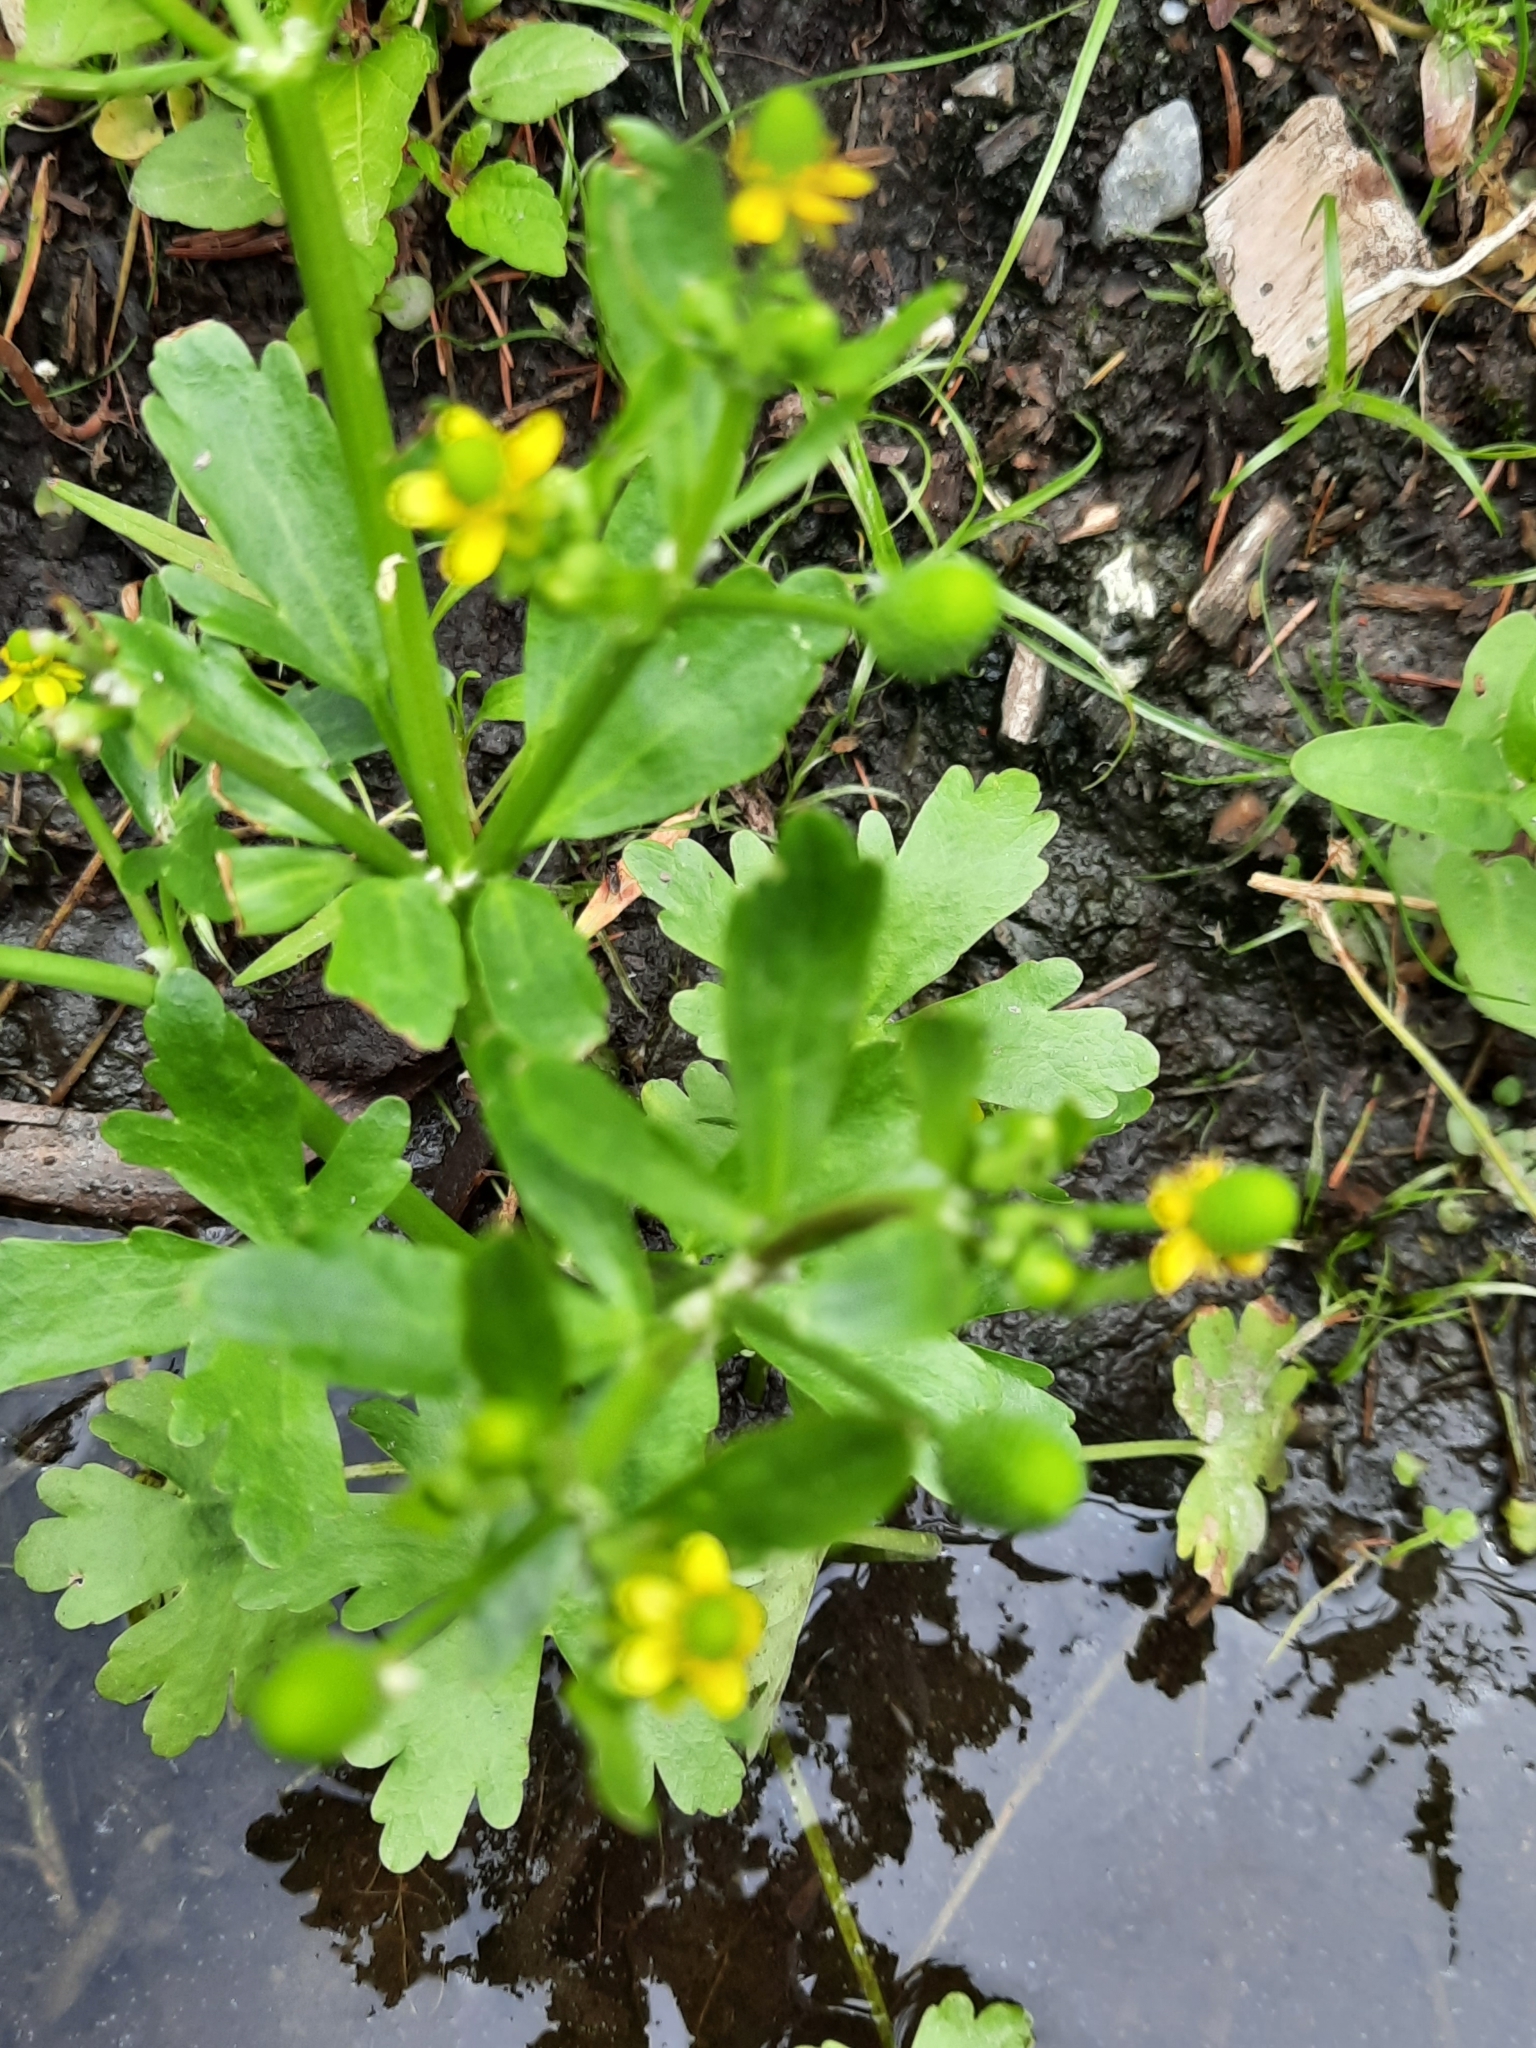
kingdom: Plantae
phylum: Tracheophyta
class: Magnoliopsida
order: Ranunculales
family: Ranunculaceae
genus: Ranunculus
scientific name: Ranunculus sceleratus
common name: Celery-leaved buttercup
